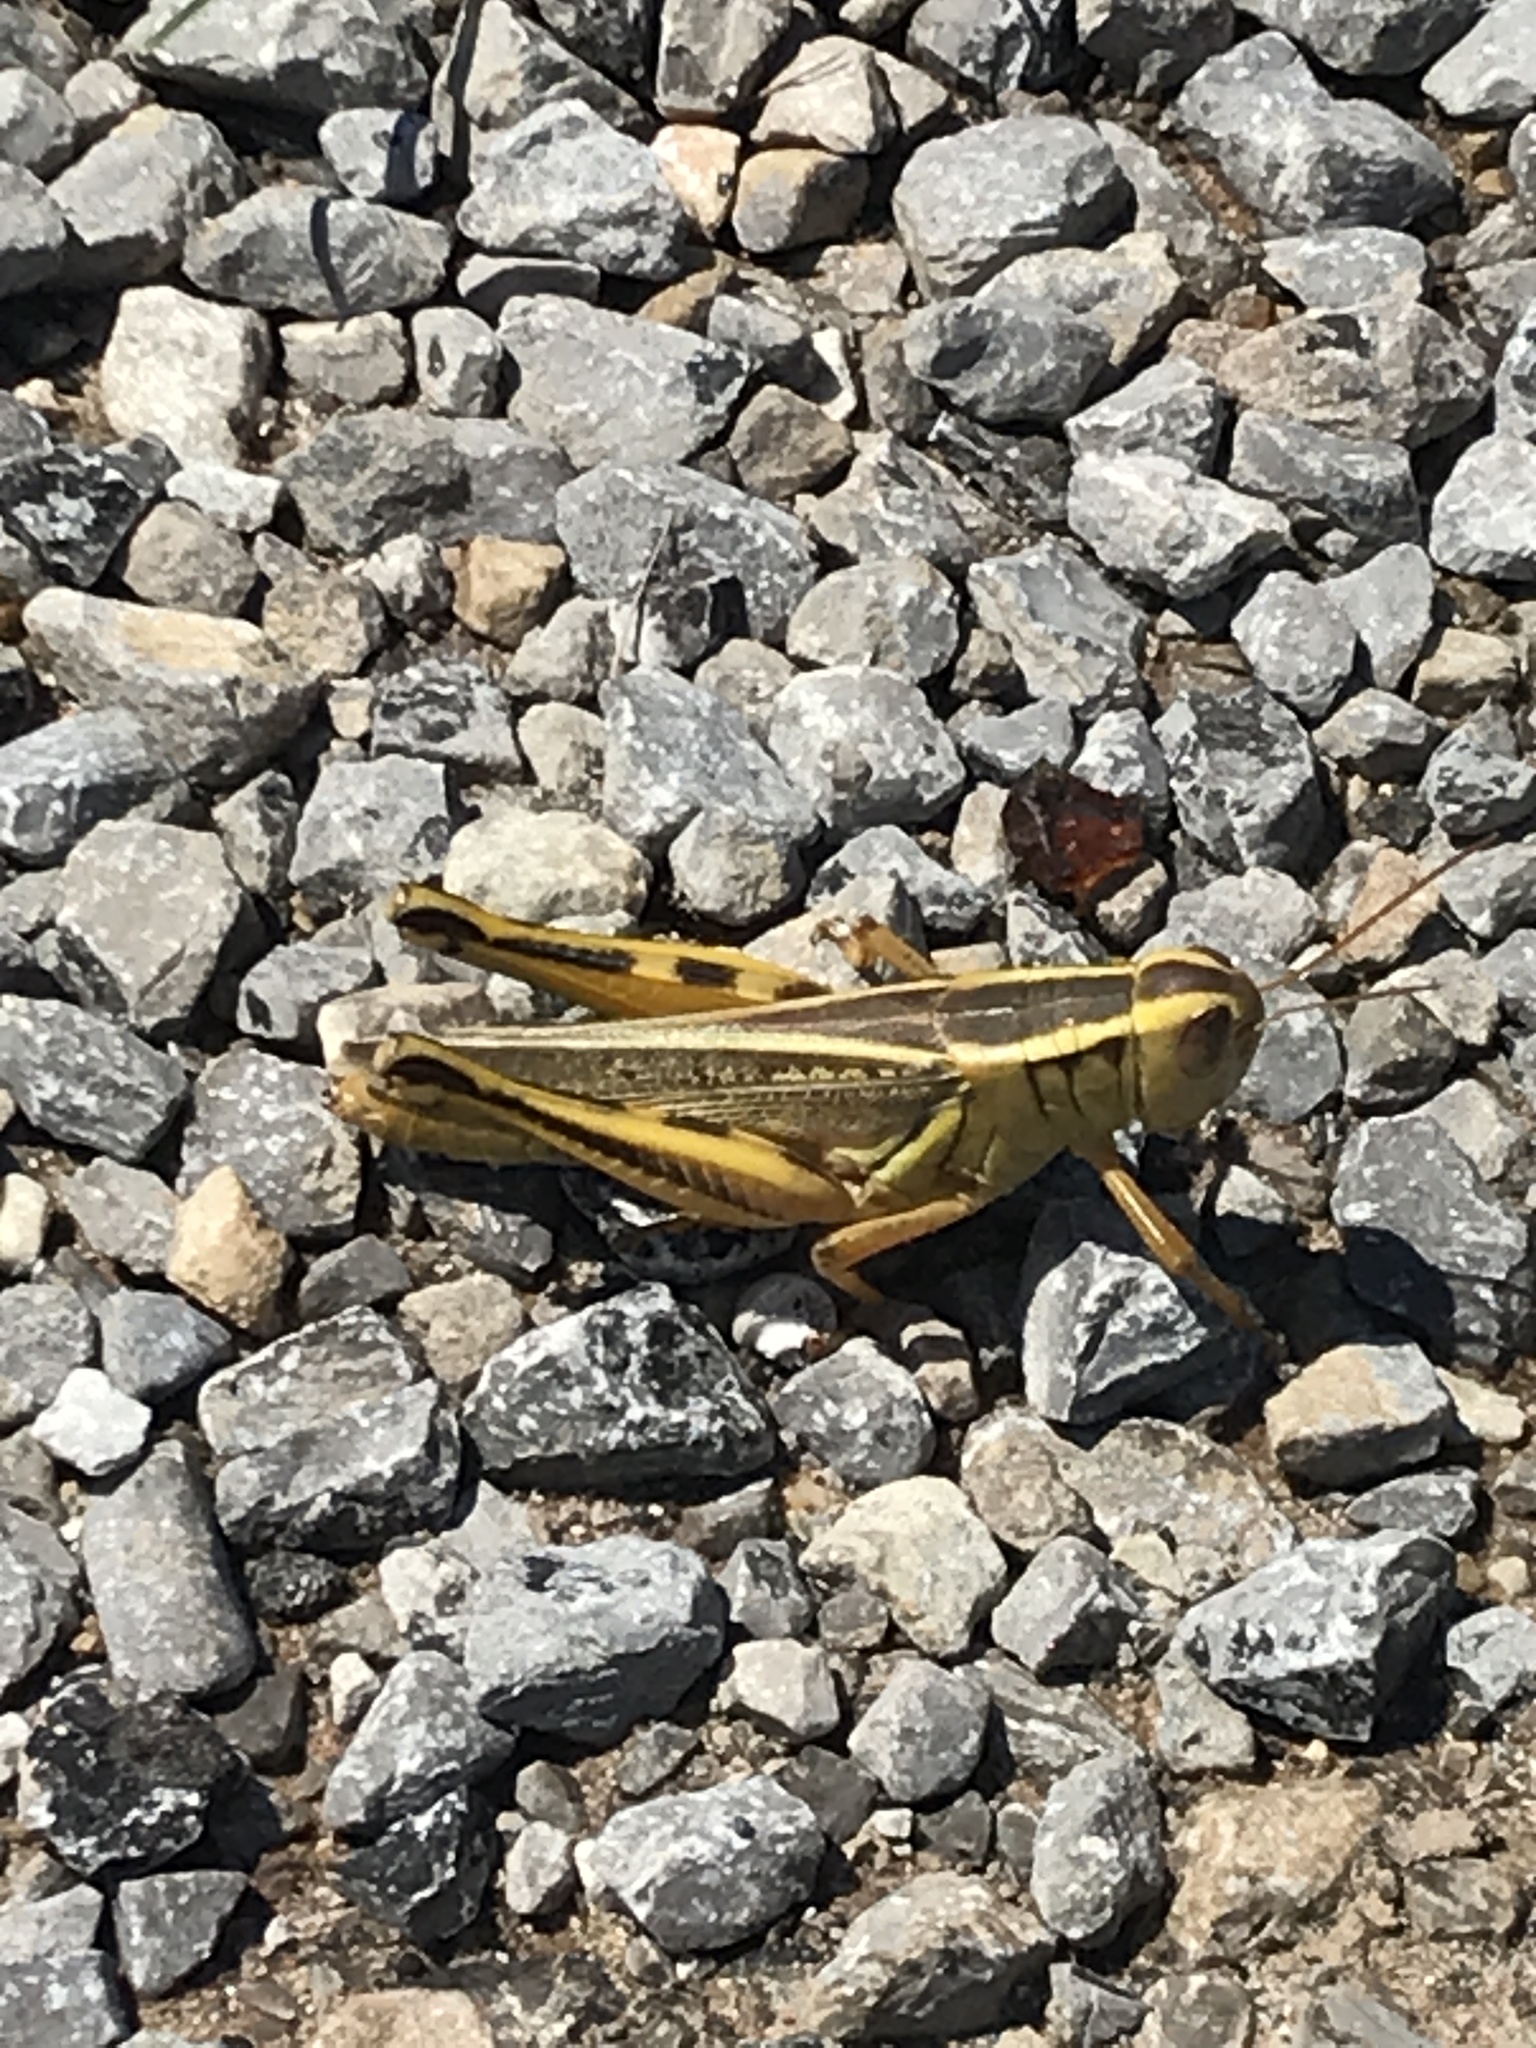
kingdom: Animalia
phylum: Arthropoda
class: Insecta
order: Orthoptera
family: Acrididae
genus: Melanoplus
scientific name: Melanoplus bivittatus
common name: Two-striped grasshopper
